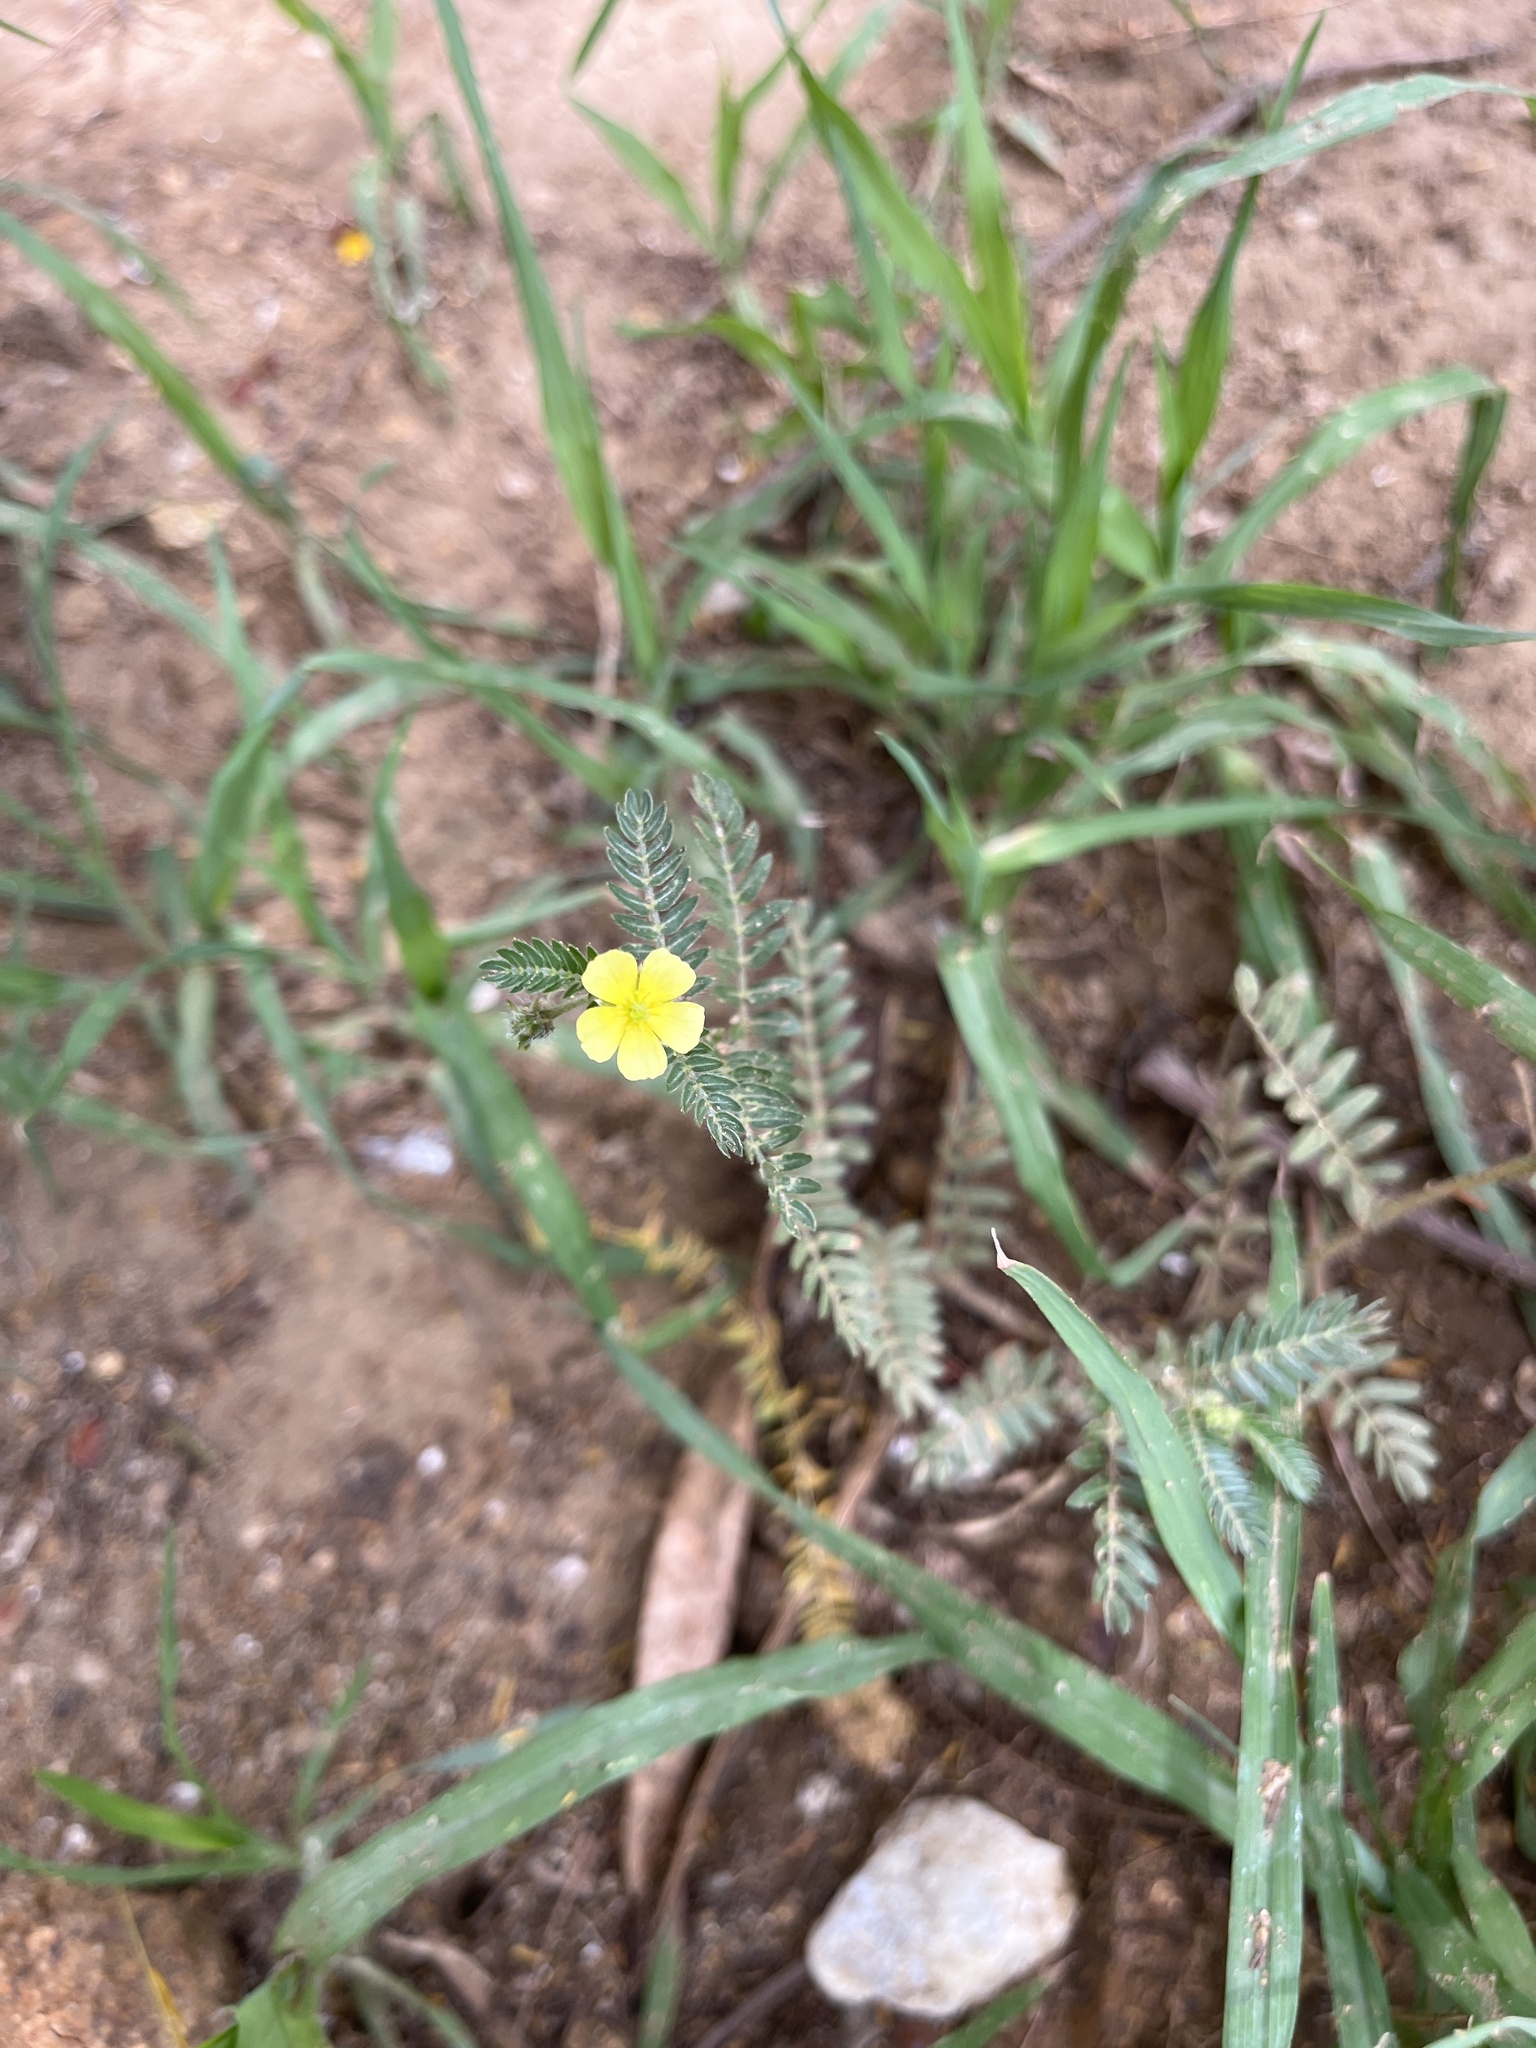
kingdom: Plantae
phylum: Tracheophyta
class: Magnoliopsida
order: Zygophyllales
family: Zygophyllaceae
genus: Tribulus
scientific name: Tribulus terrestris
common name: Puncturevine
